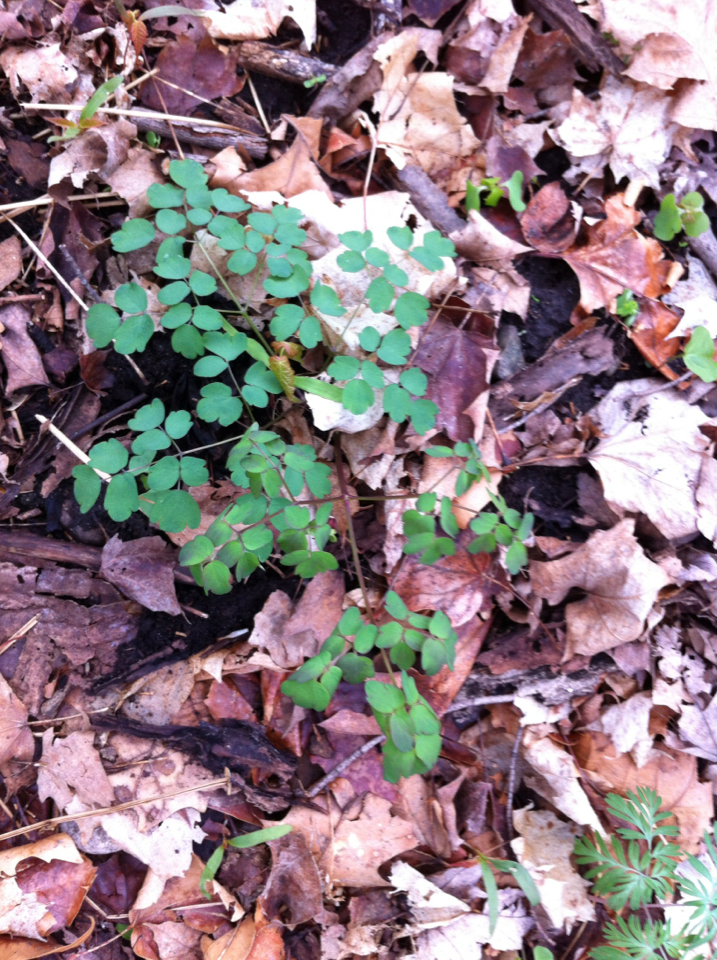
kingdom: Plantae
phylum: Tracheophyta
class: Magnoliopsida
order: Ranunculales
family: Ranunculaceae
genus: Thalictrum
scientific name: Thalictrum dioicum
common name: Early meadow-rue
